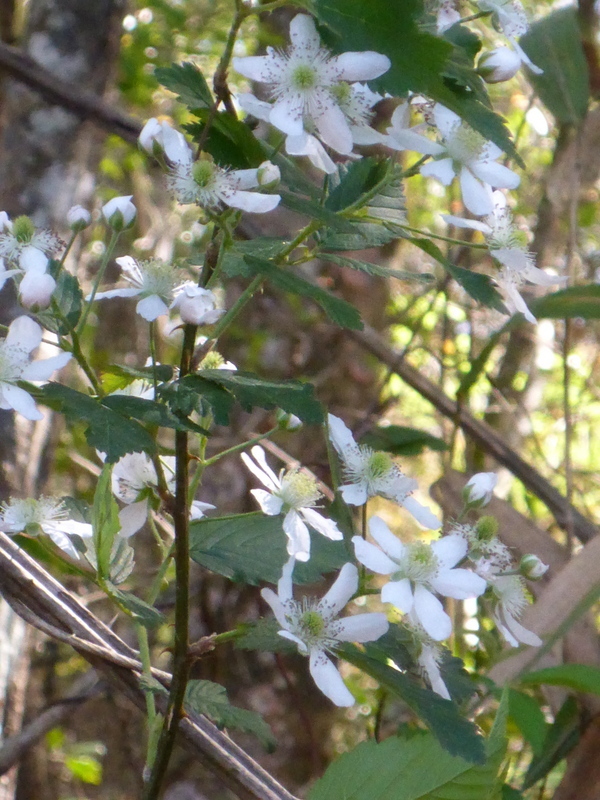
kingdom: Plantae
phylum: Tracheophyta
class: Magnoliopsida
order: Rosales
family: Rosaceae
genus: Rubus
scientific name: Rubus pensilvanicus
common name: Pennsylvania blackberry
